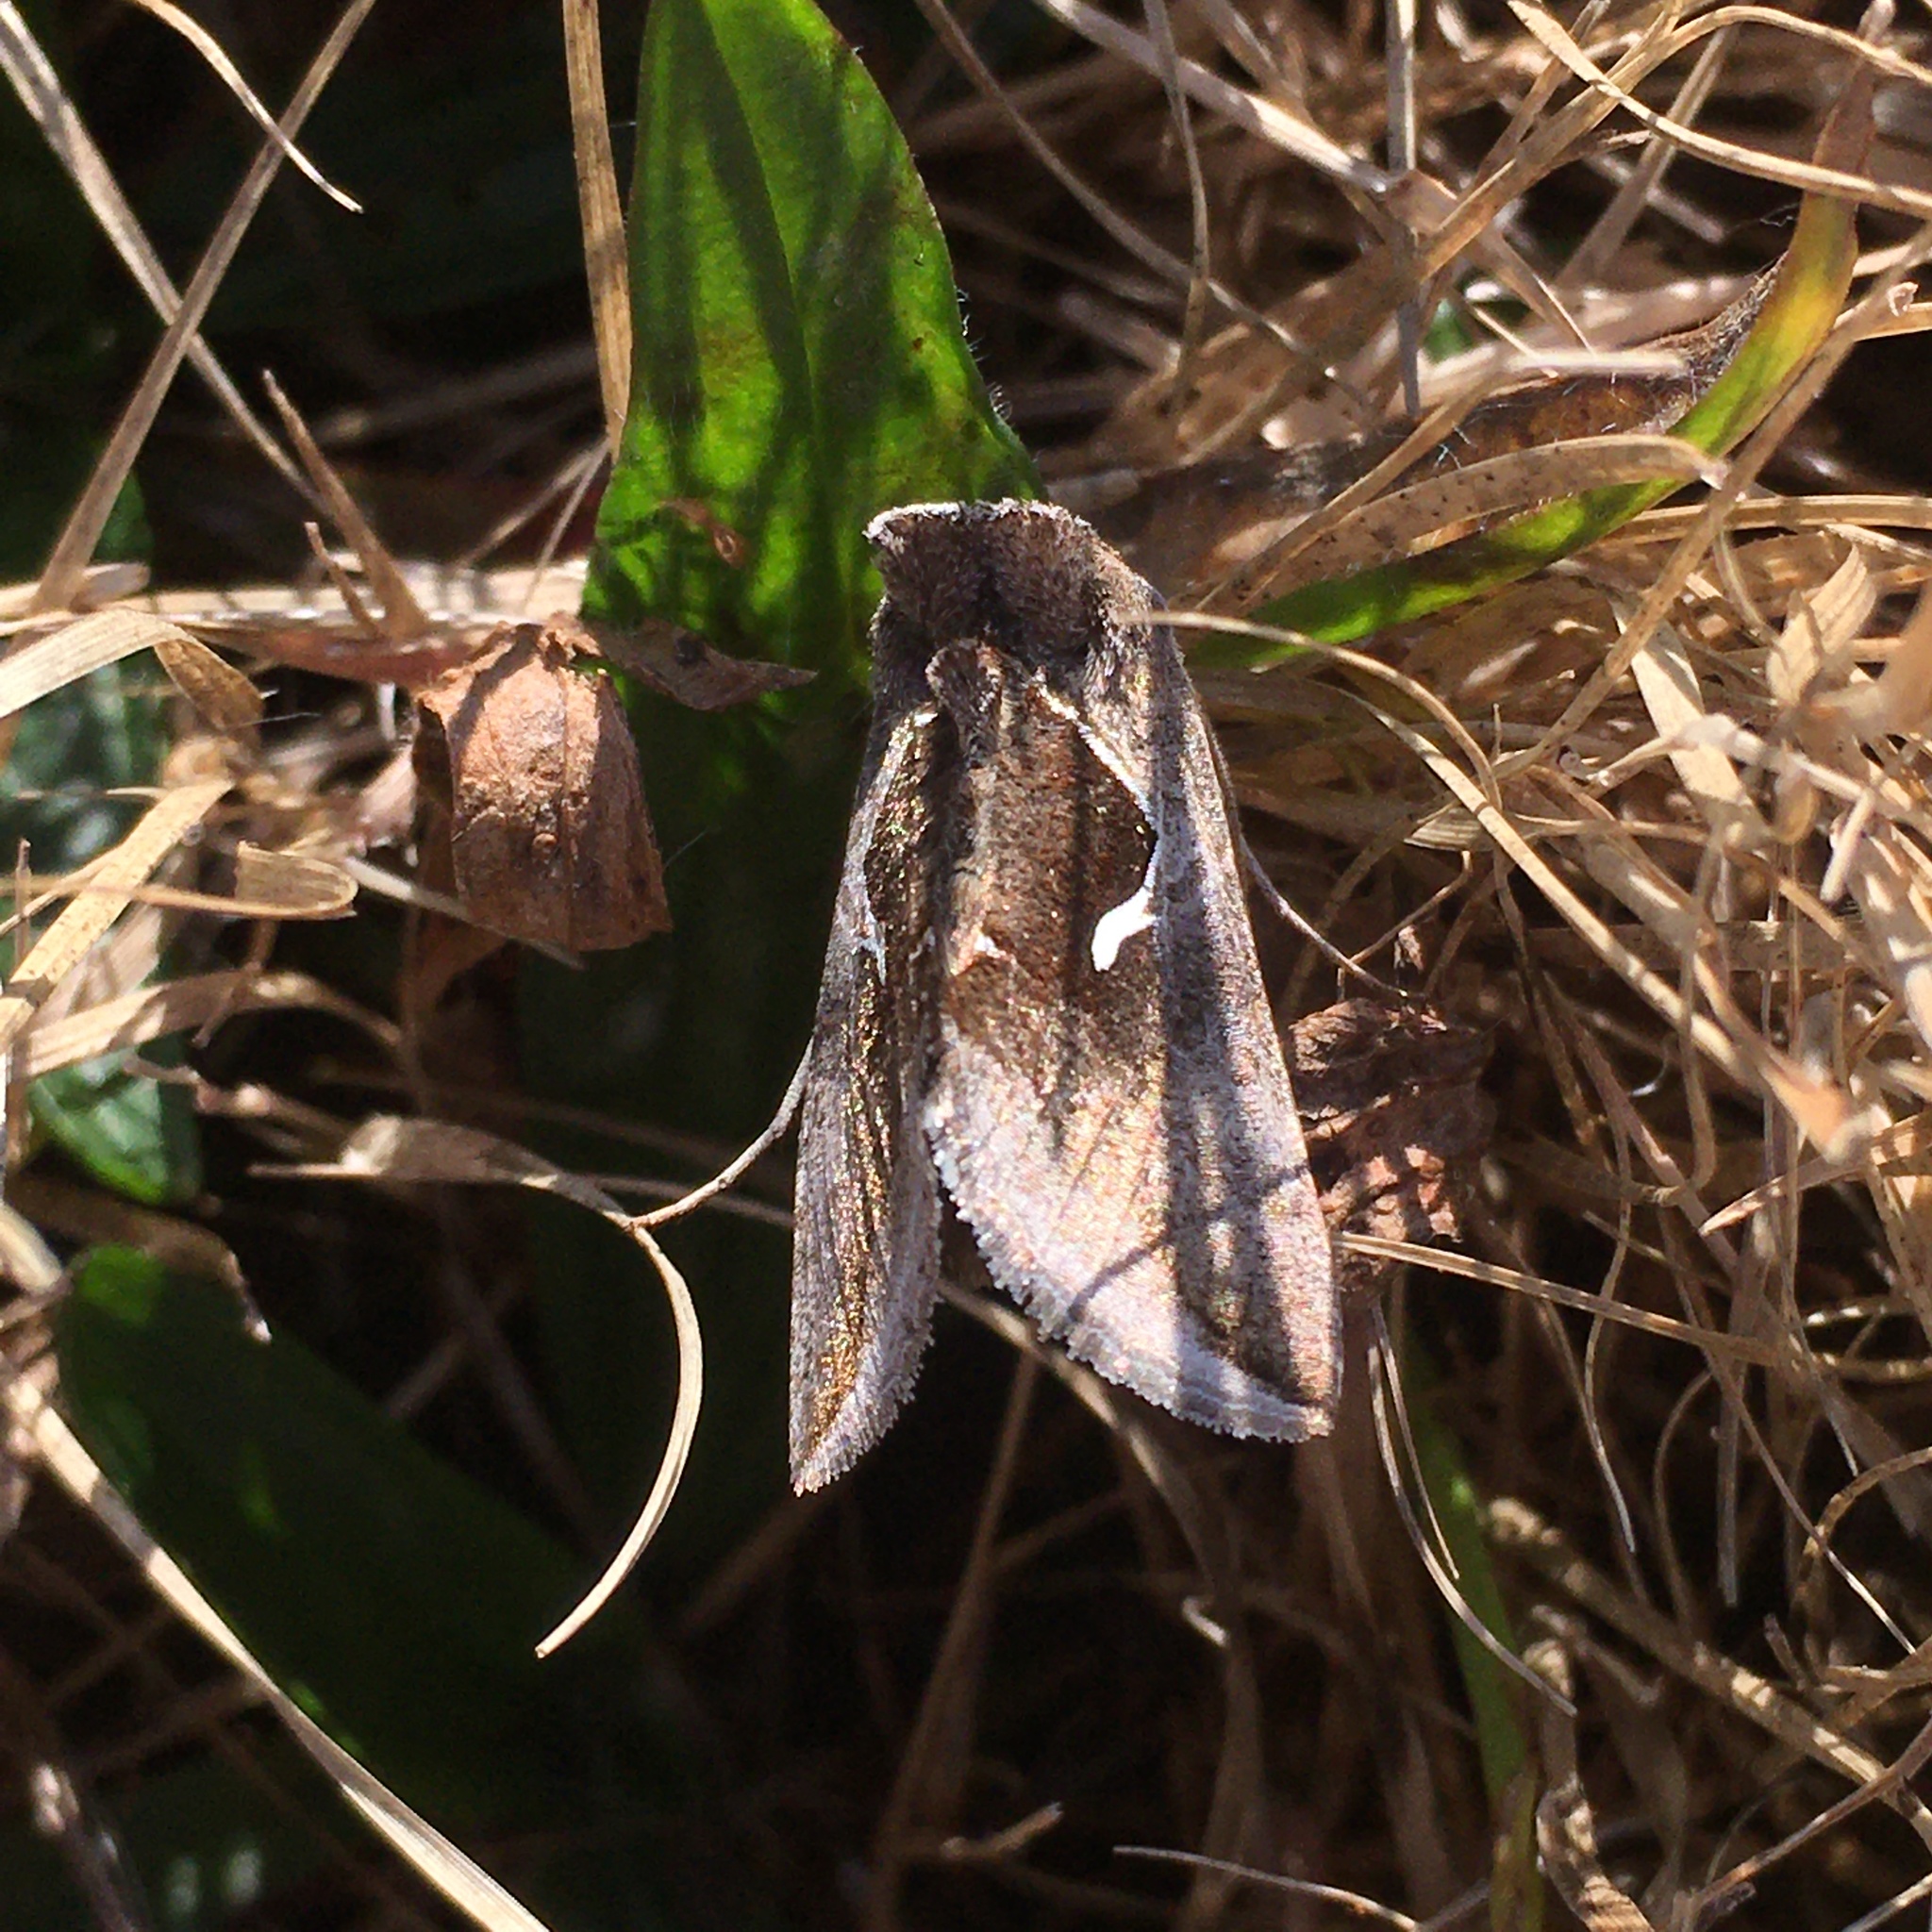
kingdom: Animalia
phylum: Arthropoda
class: Insecta
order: Lepidoptera
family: Noctuidae
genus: Anagrapha
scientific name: Anagrapha falcifera
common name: Celery looper
